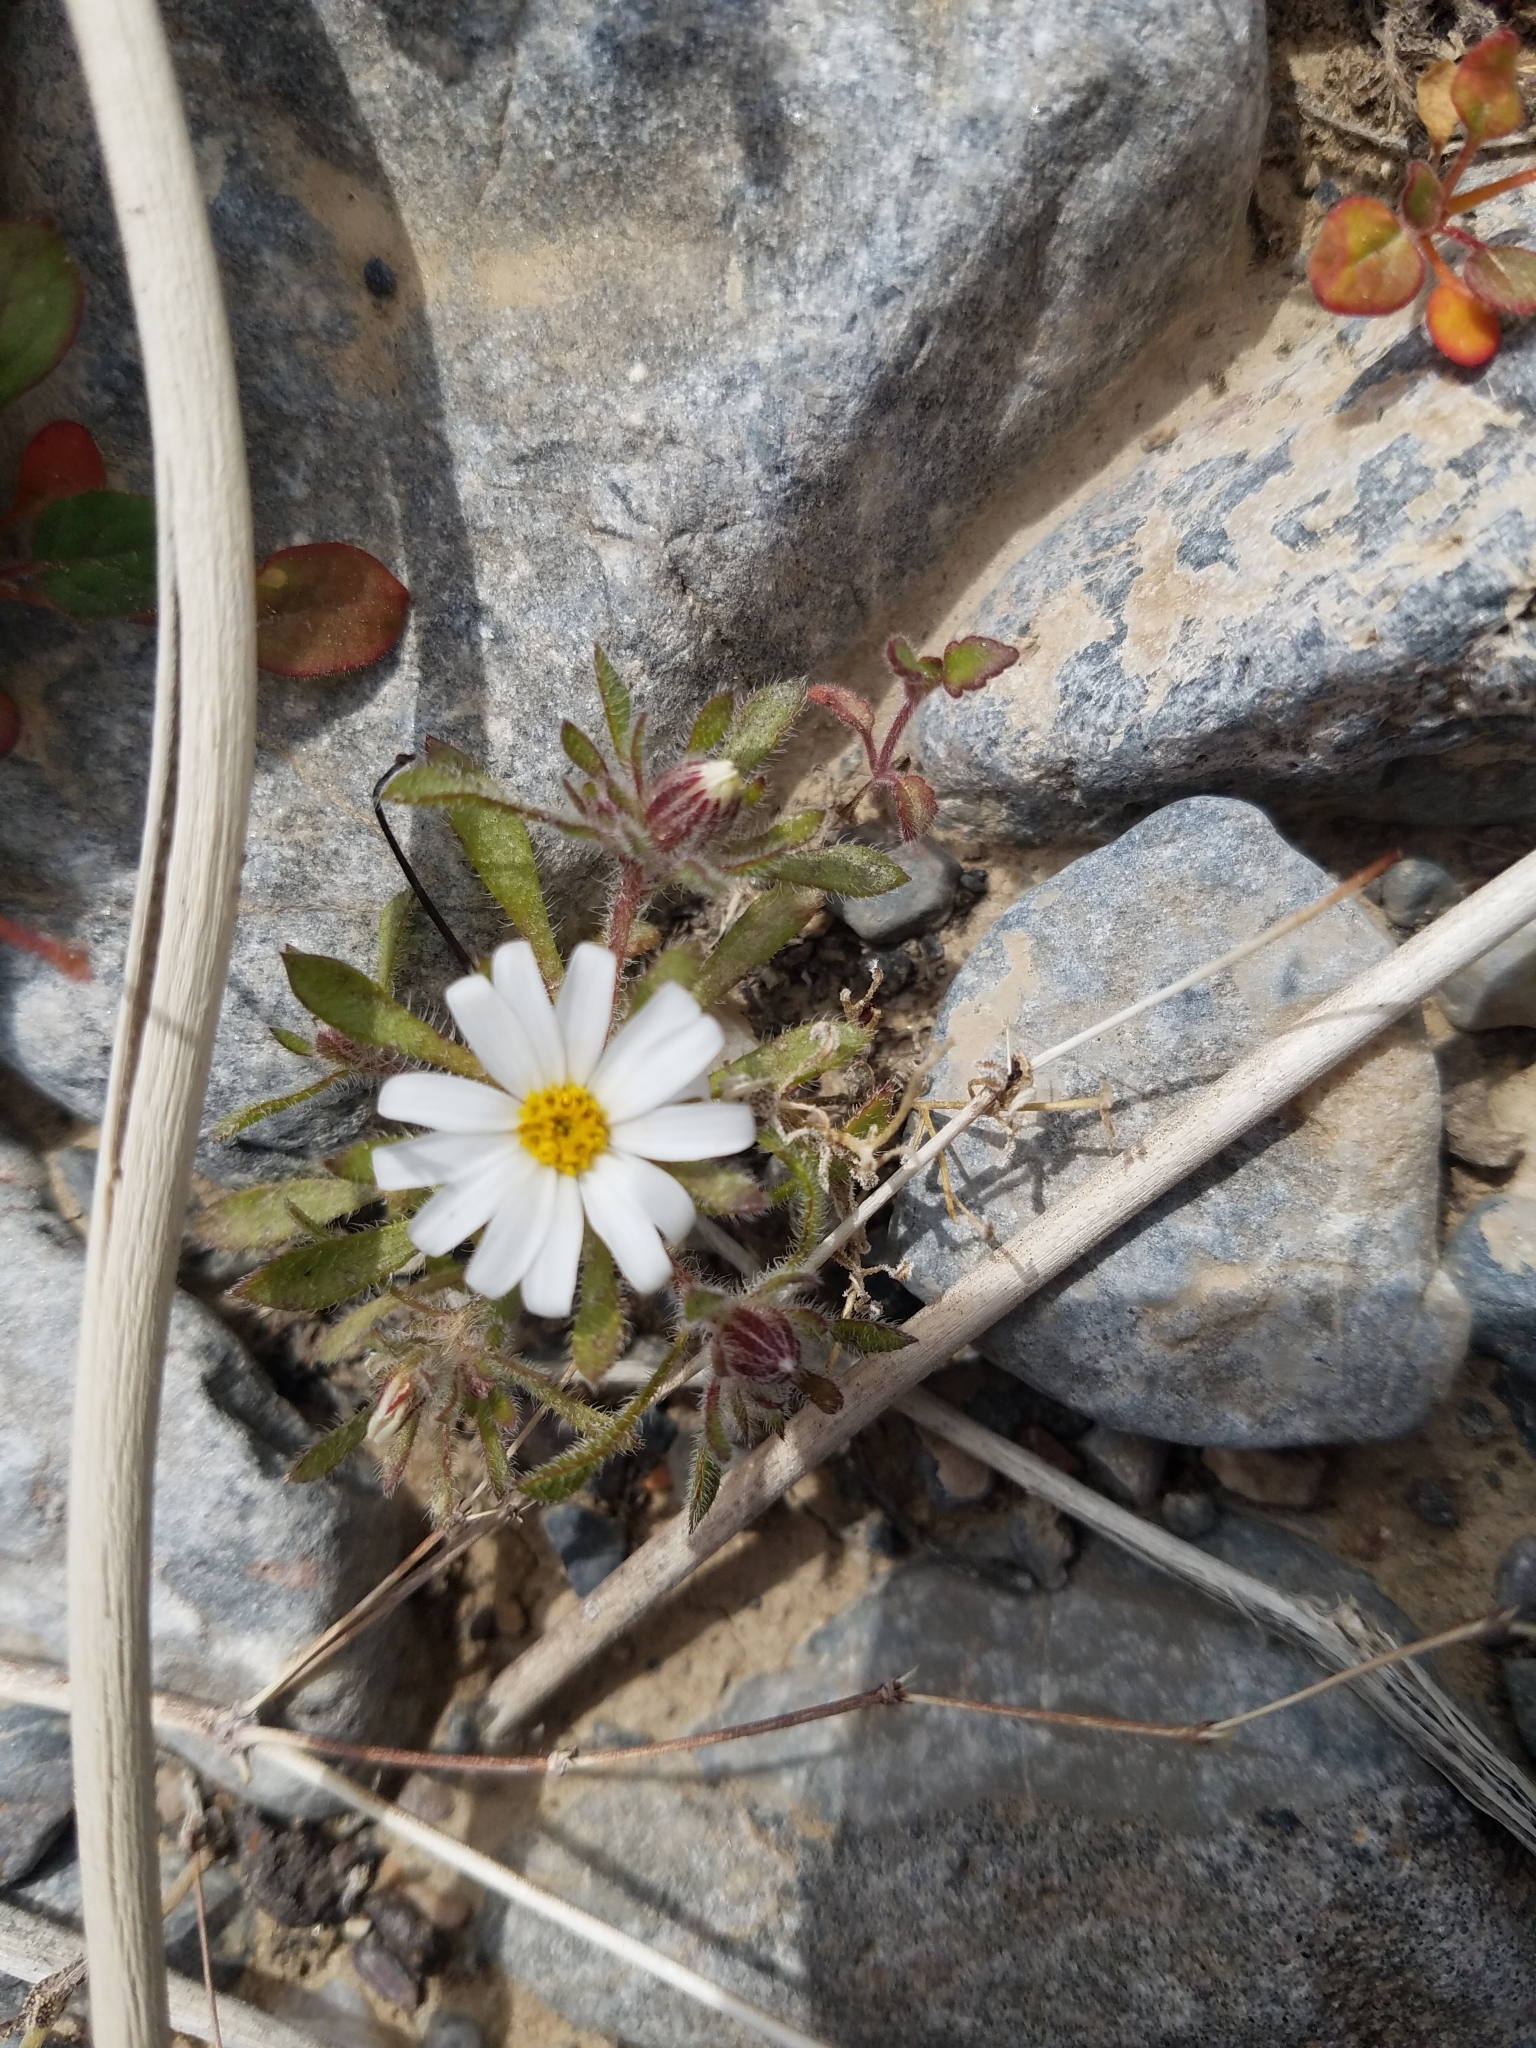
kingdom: Plantae
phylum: Tracheophyta
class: Magnoliopsida
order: Asterales
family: Asteraceae
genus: Monoptilon
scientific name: Monoptilon bellioides
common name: Bristly desertstar
